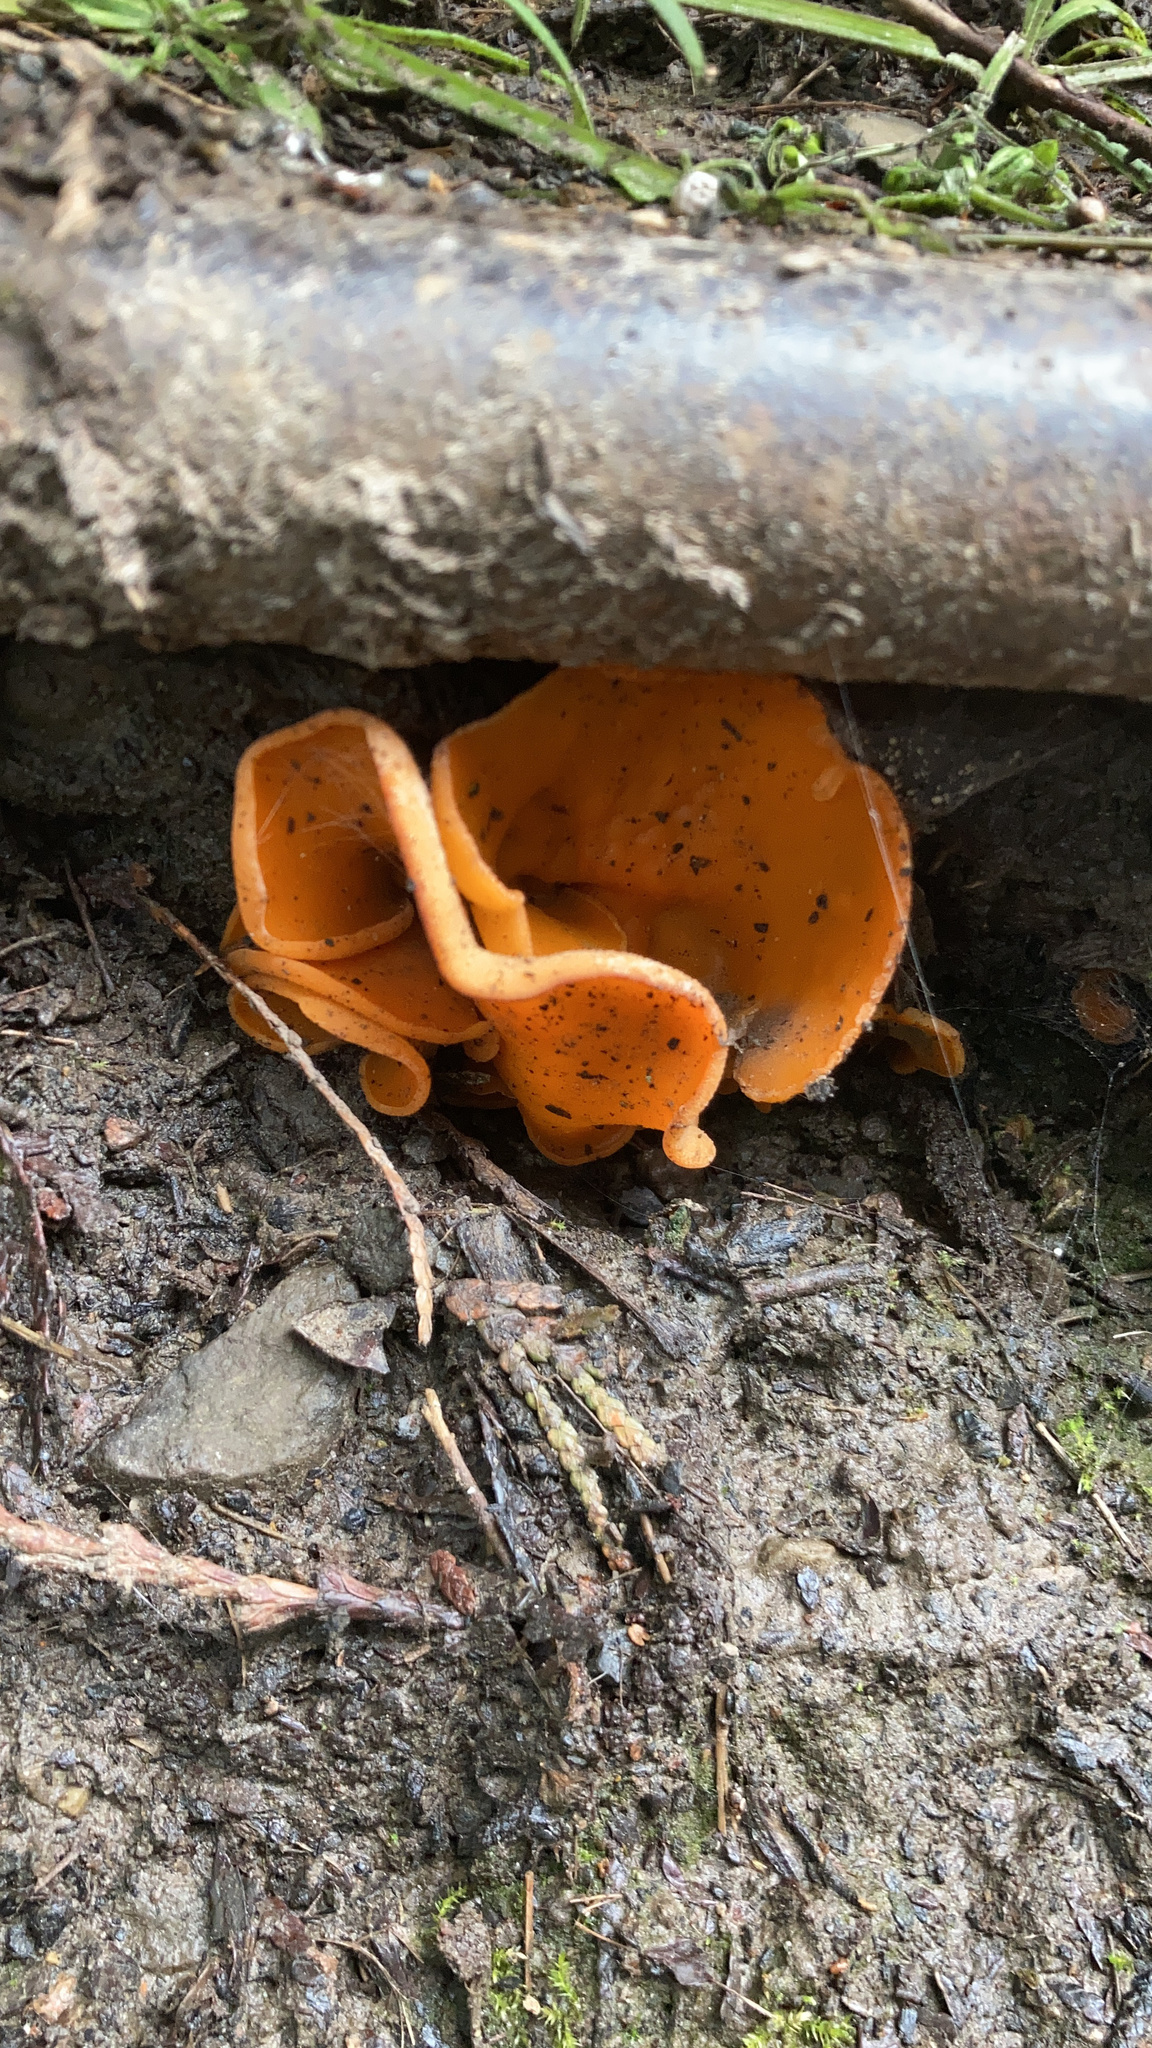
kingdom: Fungi
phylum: Ascomycota
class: Pezizomycetes
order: Pezizales
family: Pyronemataceae
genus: Aleuria
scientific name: Aleuria aurantia
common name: Orange peel fungus
